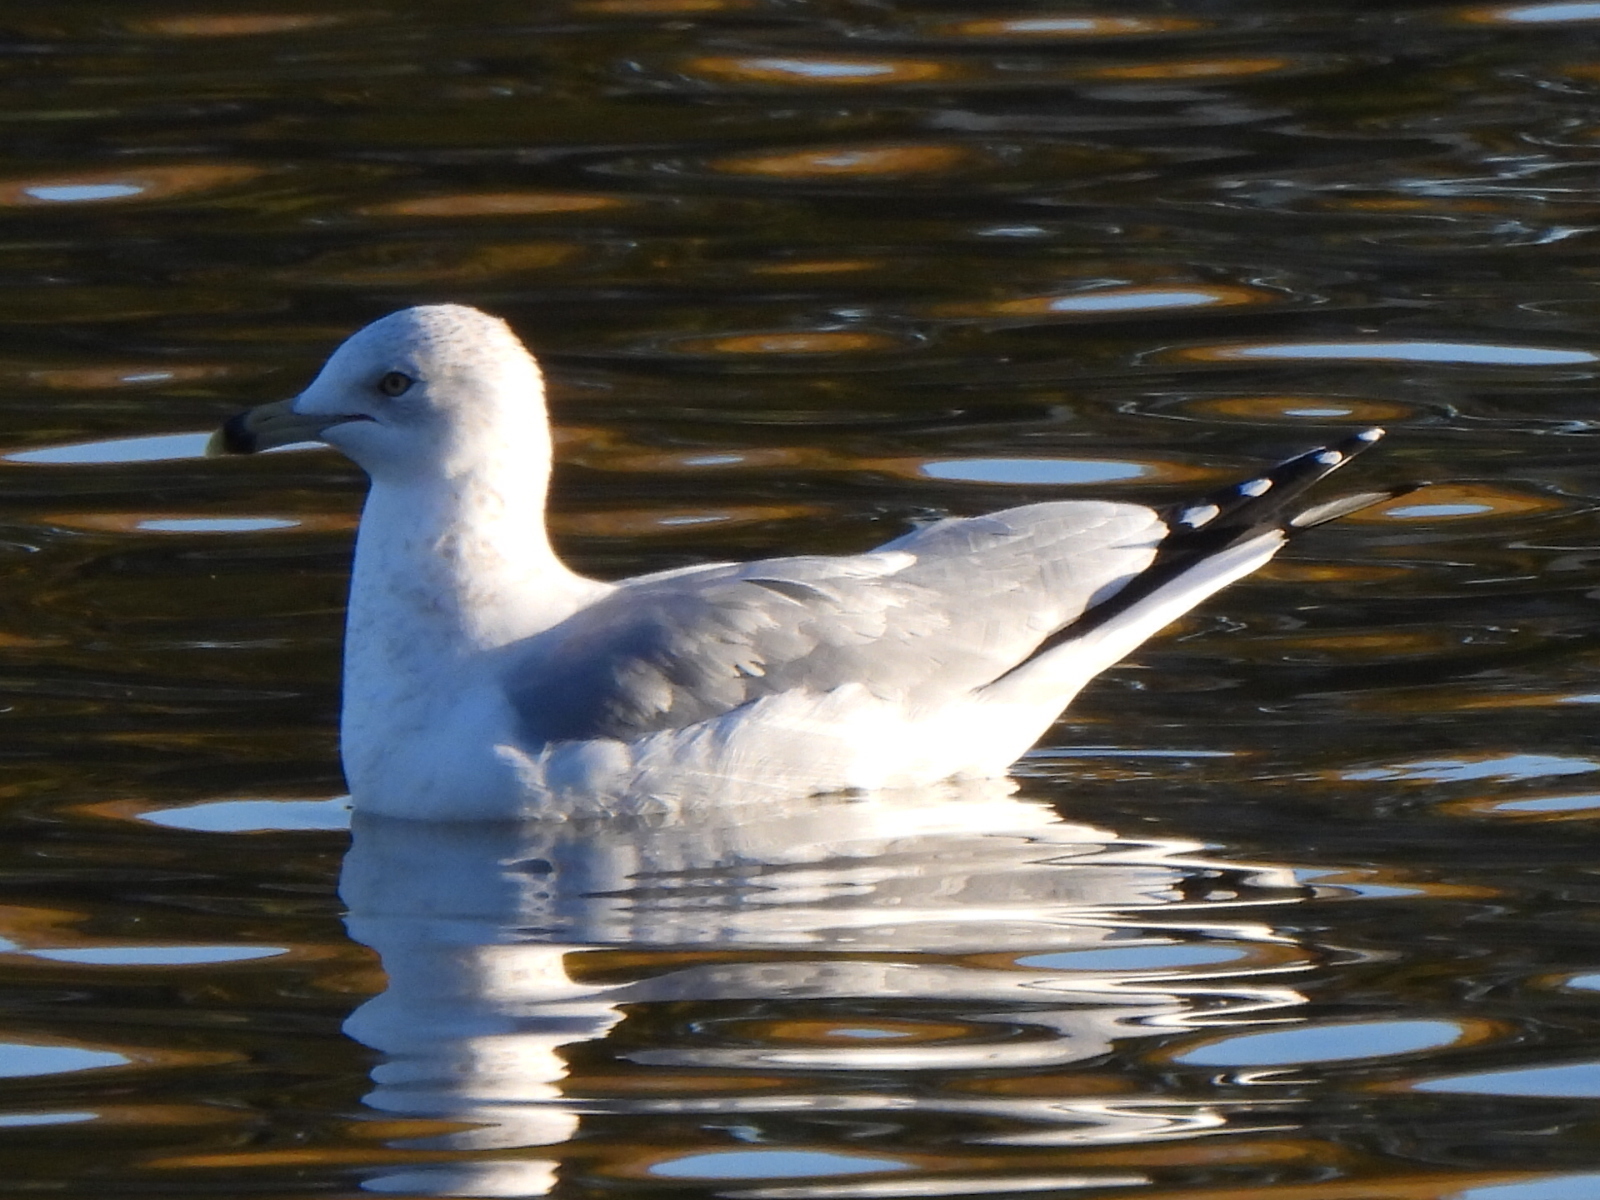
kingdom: Animalia
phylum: Chordata
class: Aves
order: Charadriiformes
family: Laridae
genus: Larus
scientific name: Larus delawarensis
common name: Ring-billed gull
